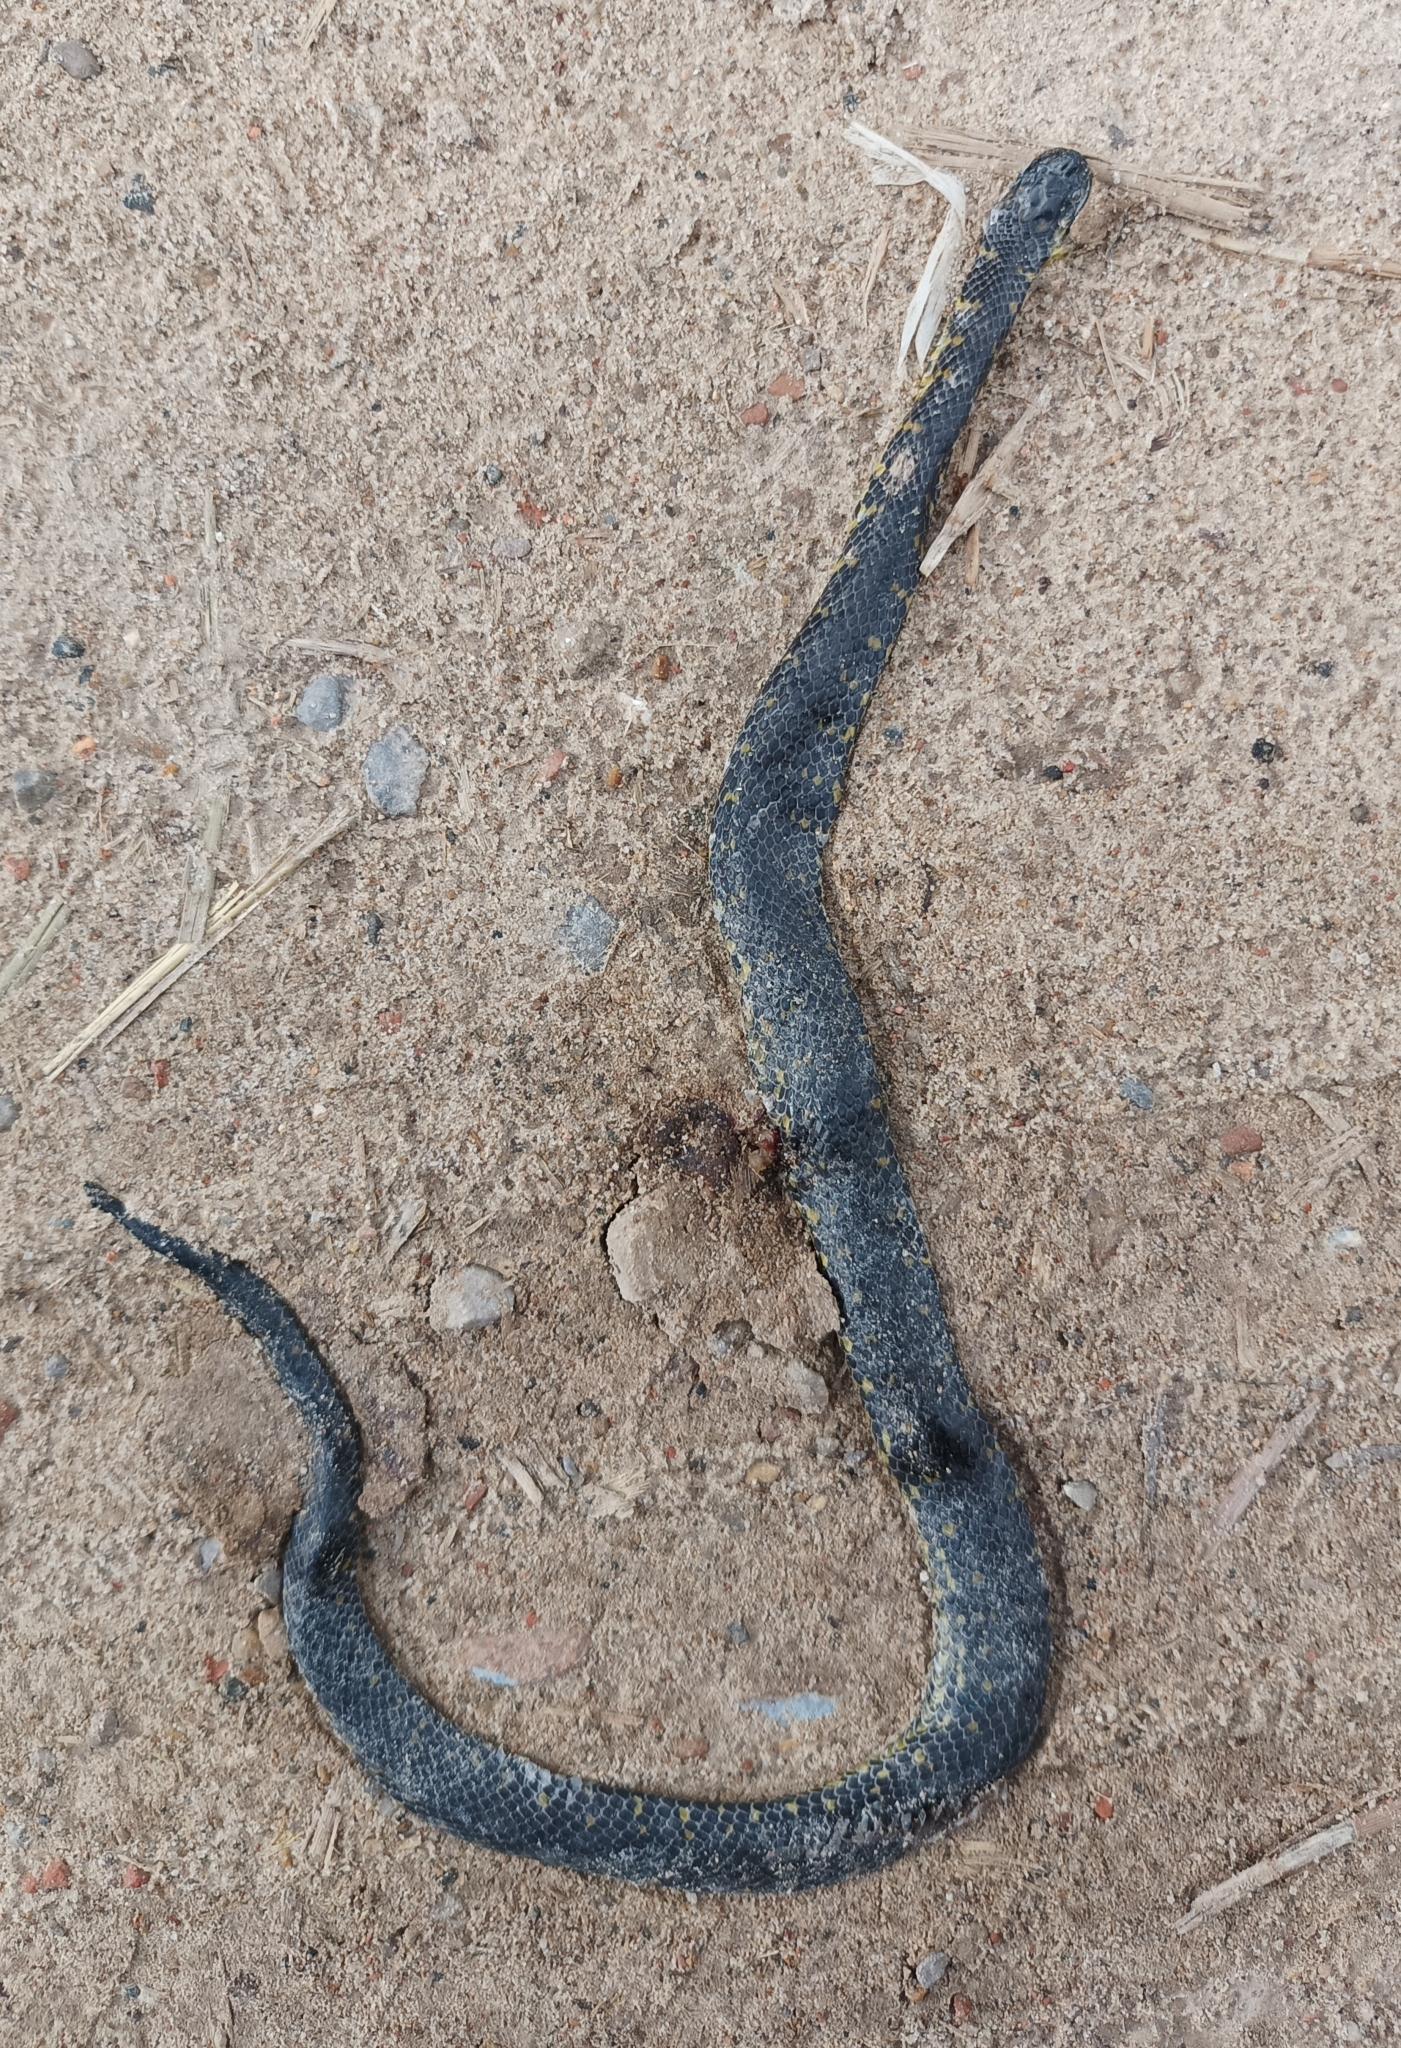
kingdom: Animalia
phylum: Chordata
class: Squamata
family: Colubridae
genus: Atractus
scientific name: Atractus crassicaudatus
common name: Thickhead ground snake
